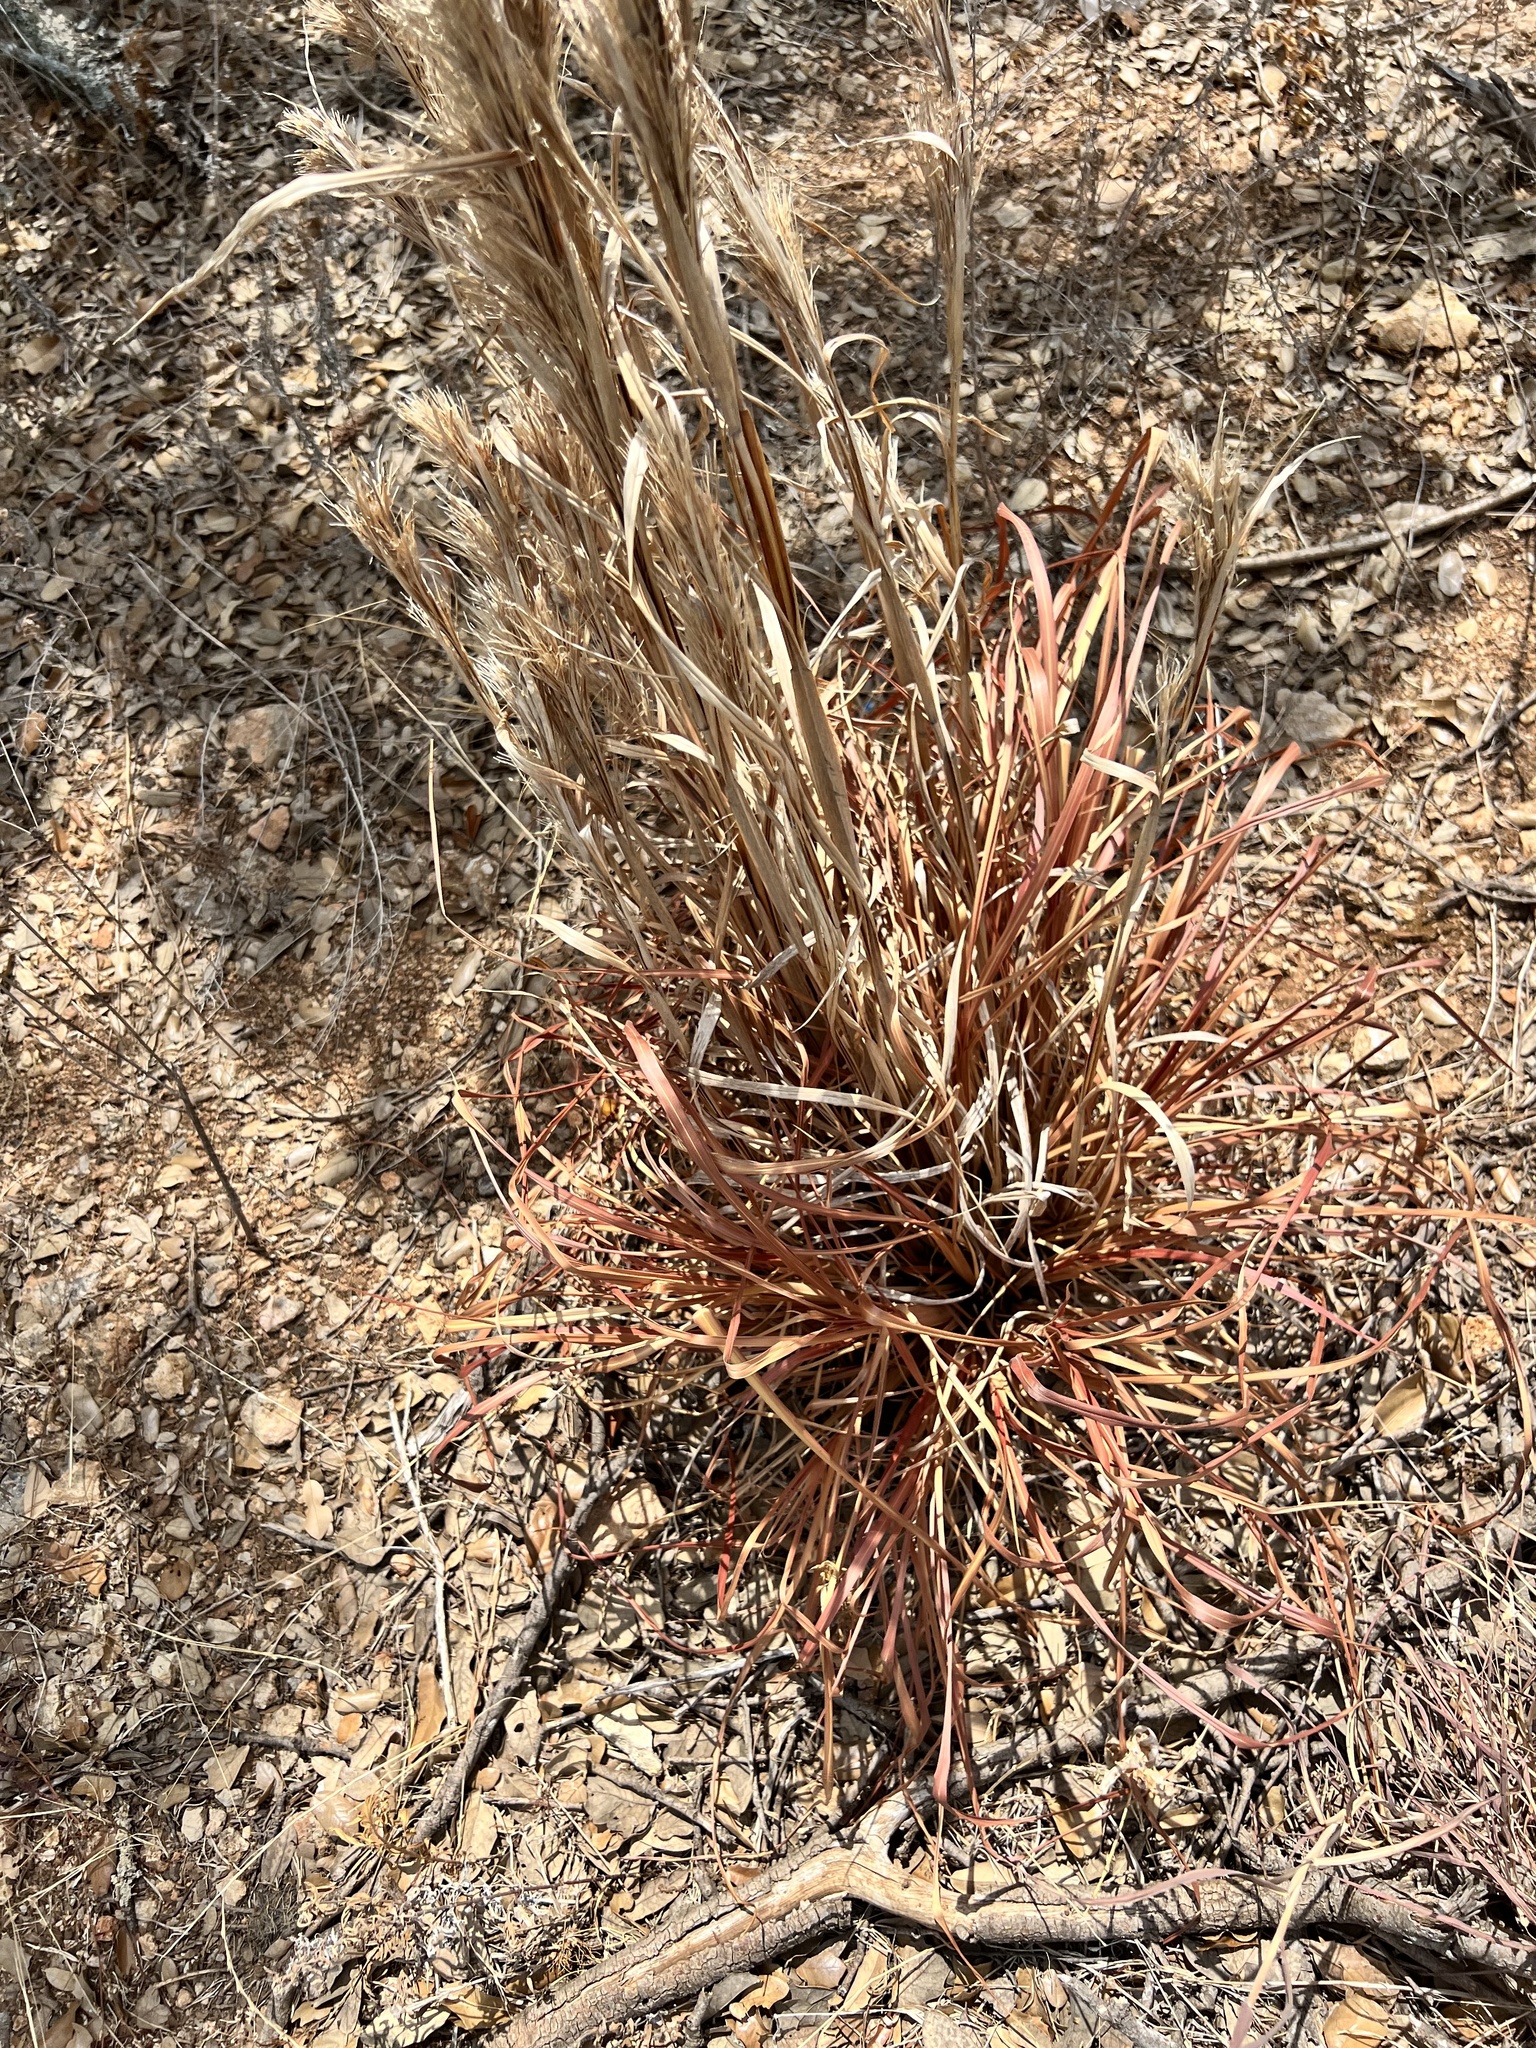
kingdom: Plantae
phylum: Tracheophyta
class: Liliopsida
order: Poales
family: Poaceae
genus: Andropogon
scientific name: Andropogon tenuispatheus
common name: Bushy bluestem
